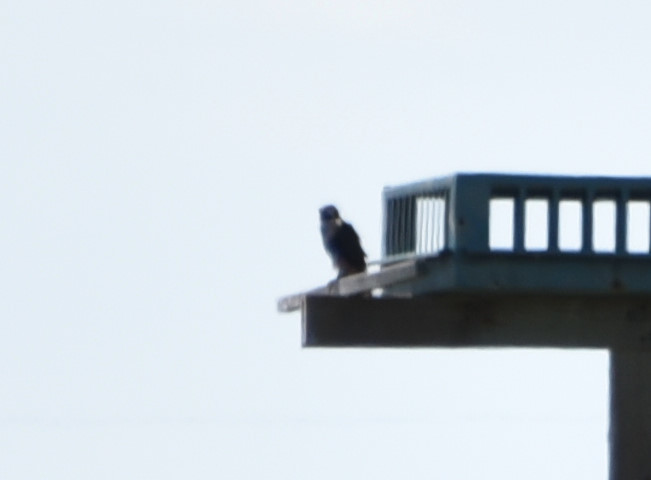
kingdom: Animalia
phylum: Chordata
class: Aves
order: Falconiformes
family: Falconidae
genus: Falco
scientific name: Falco femoralis
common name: Aplomado falcon
